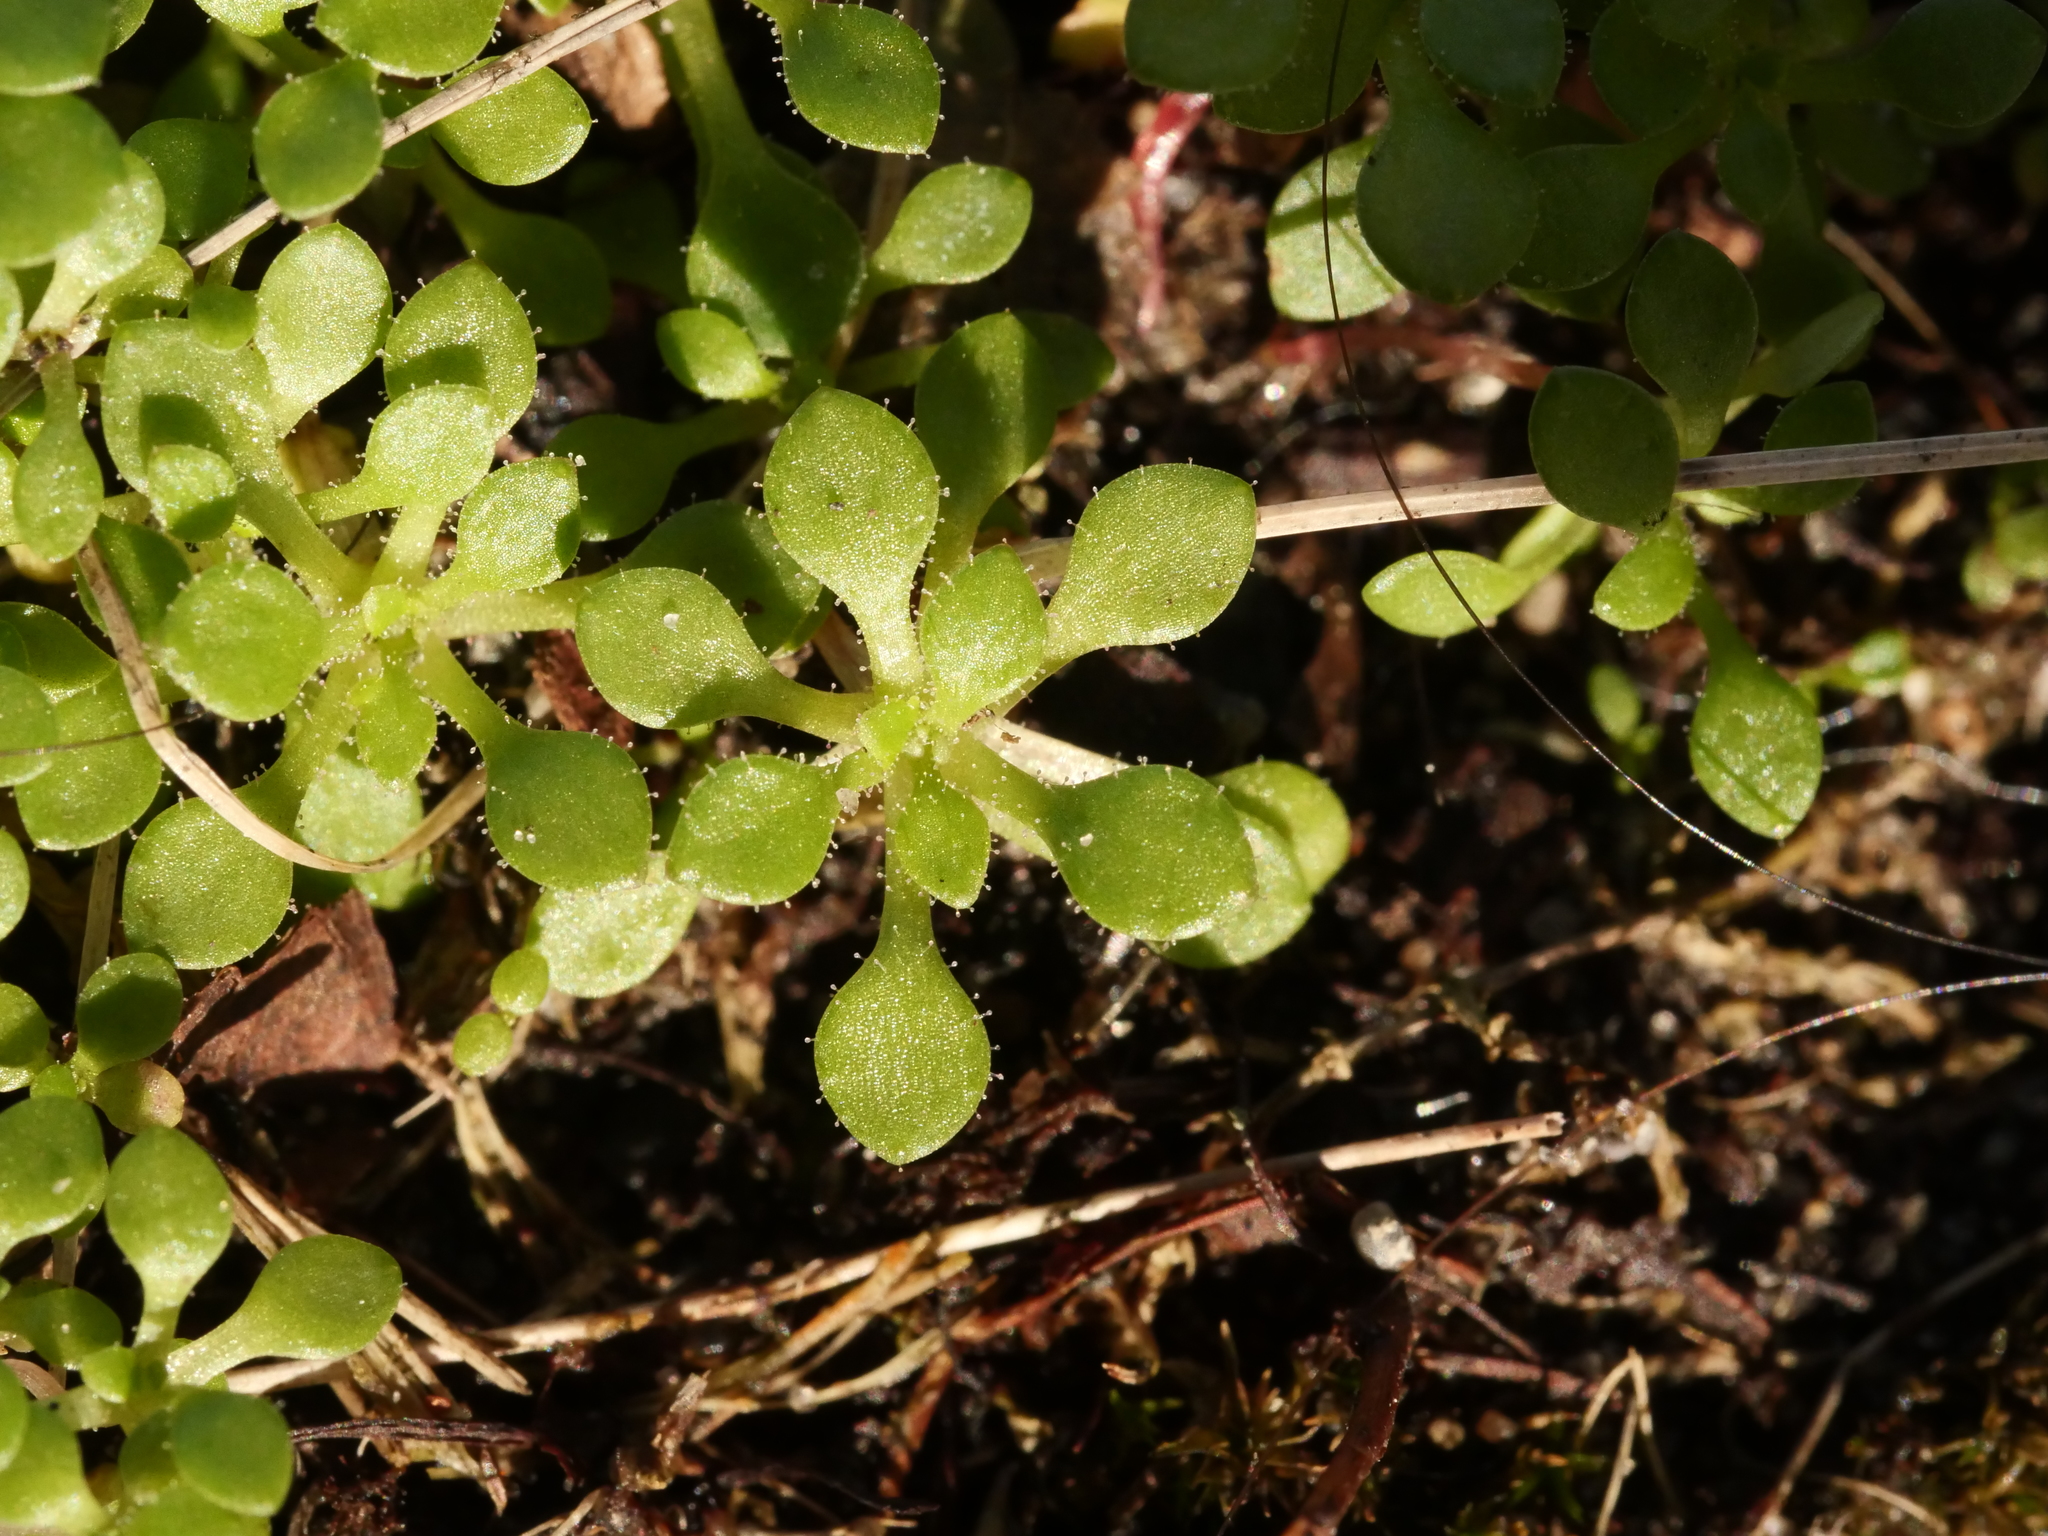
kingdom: Plantae
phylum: Tracheophyta
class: Magnoliopsida
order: Saxifragales
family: Saxifragaceae
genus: Saxifraga
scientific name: Saxifraga tridactylites
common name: Rue-leaved saxifrage
